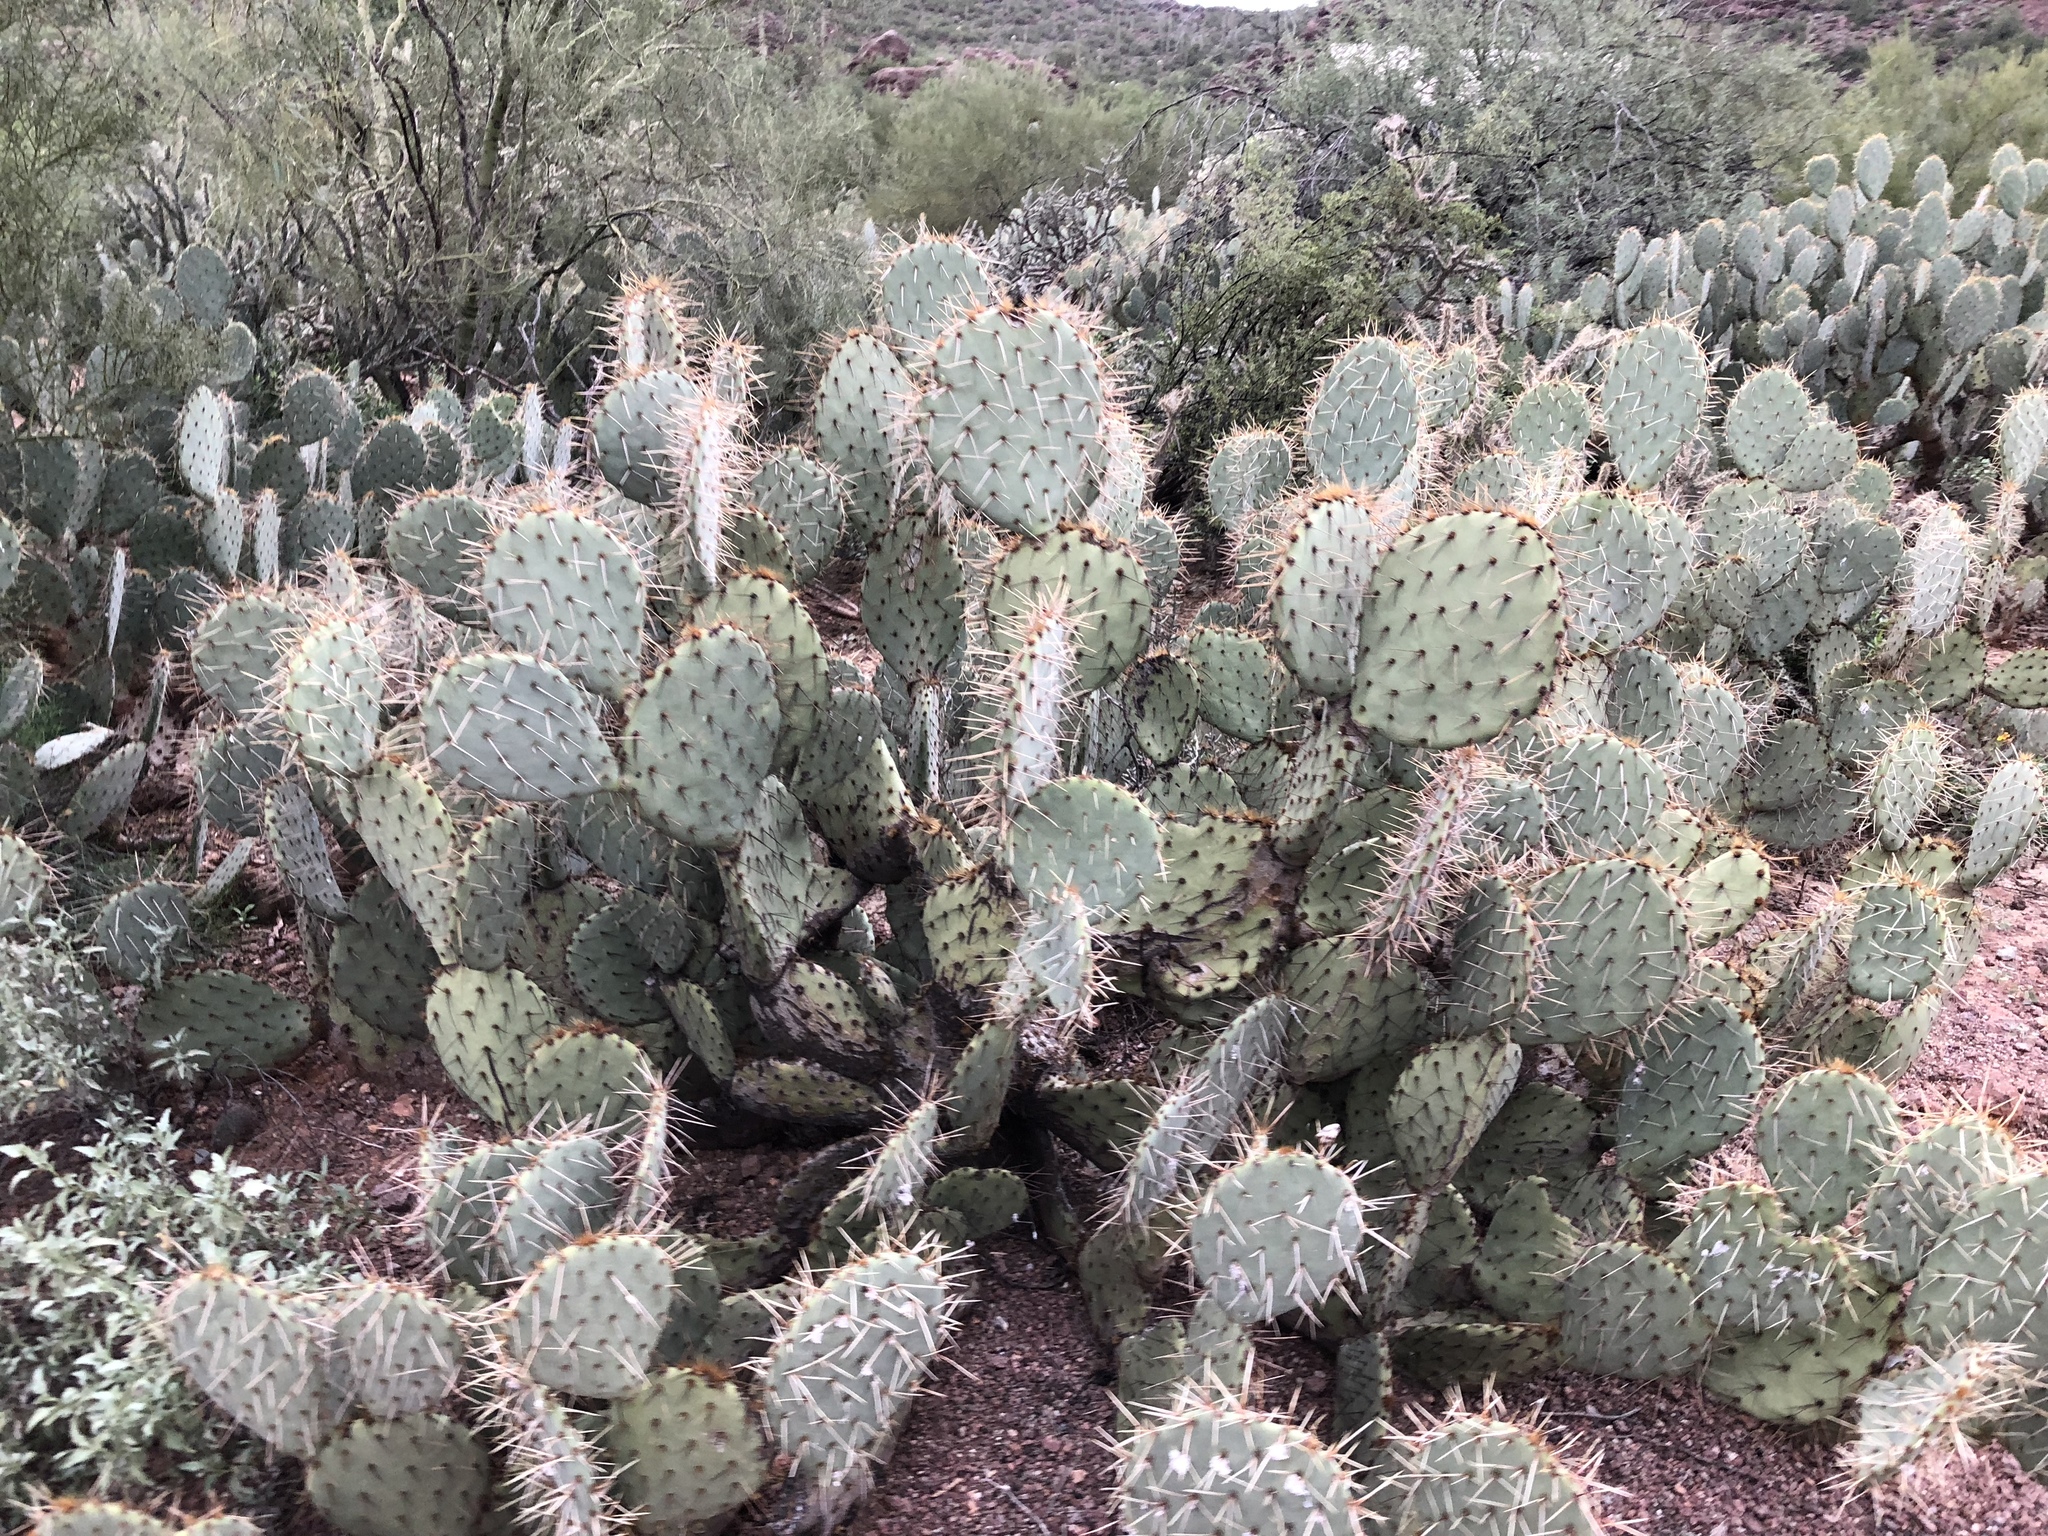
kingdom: Plantae
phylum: Tracheophyta
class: Magnoliopsida
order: Caryophyllales
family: Cactaceae
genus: Opuntia
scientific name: Opuntia engelmannii
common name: Cactus-apple
